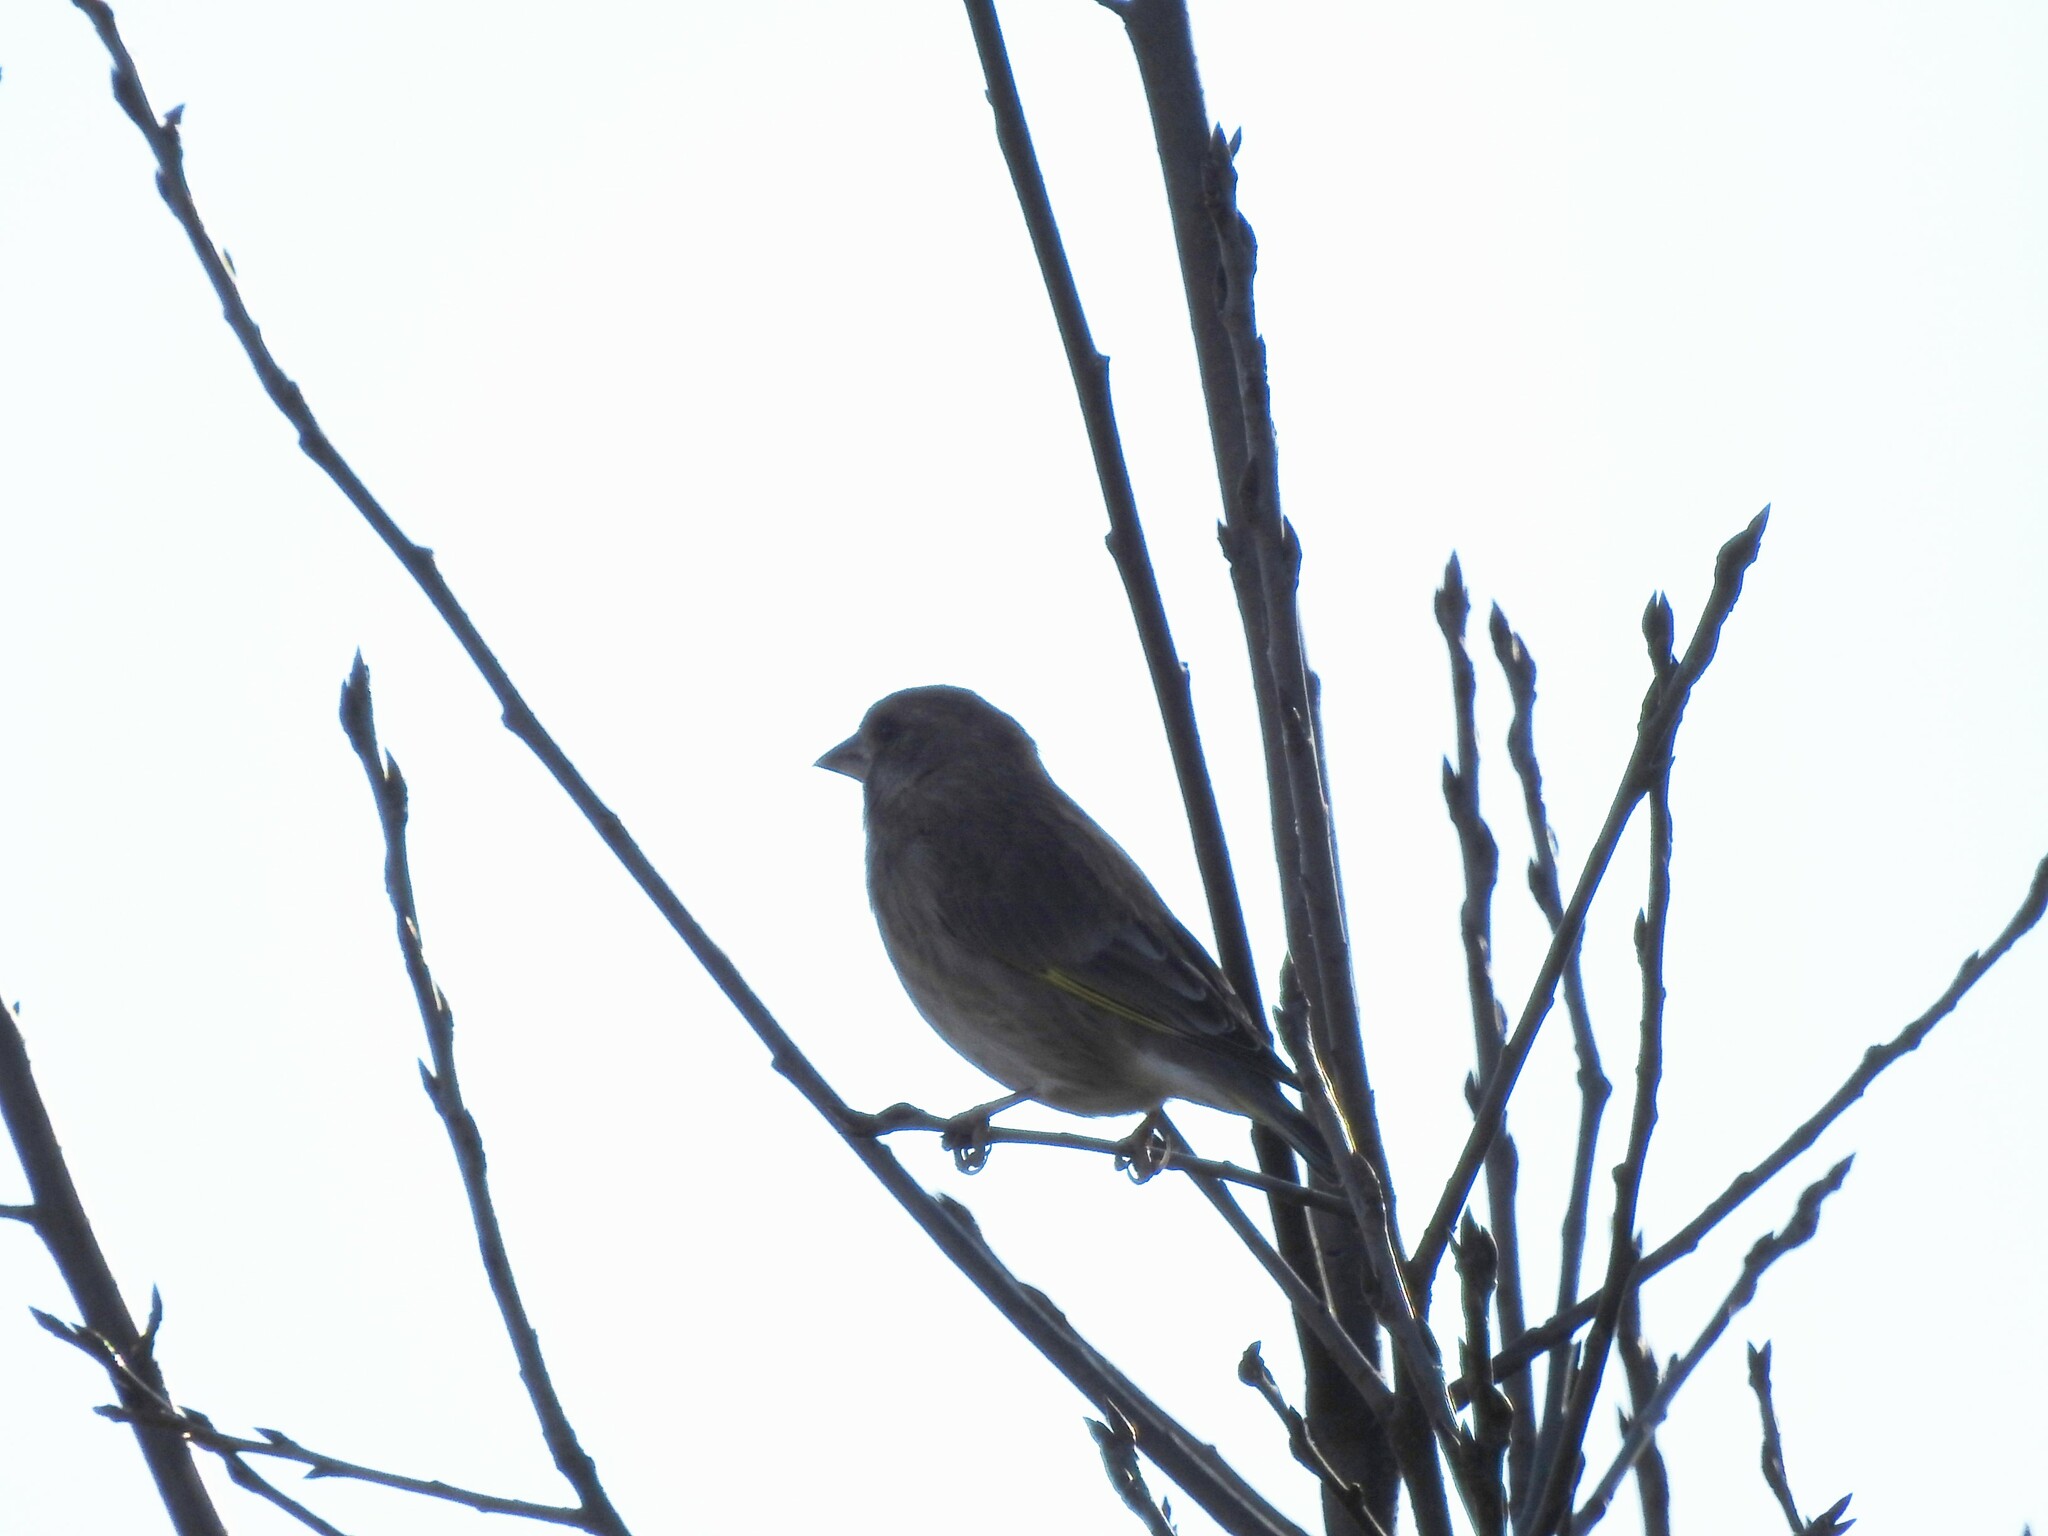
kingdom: Plantae
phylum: Tracheophyta
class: Liliopsida
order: Poales
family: Poaceae
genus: Chloris
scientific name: Chloris chloris
